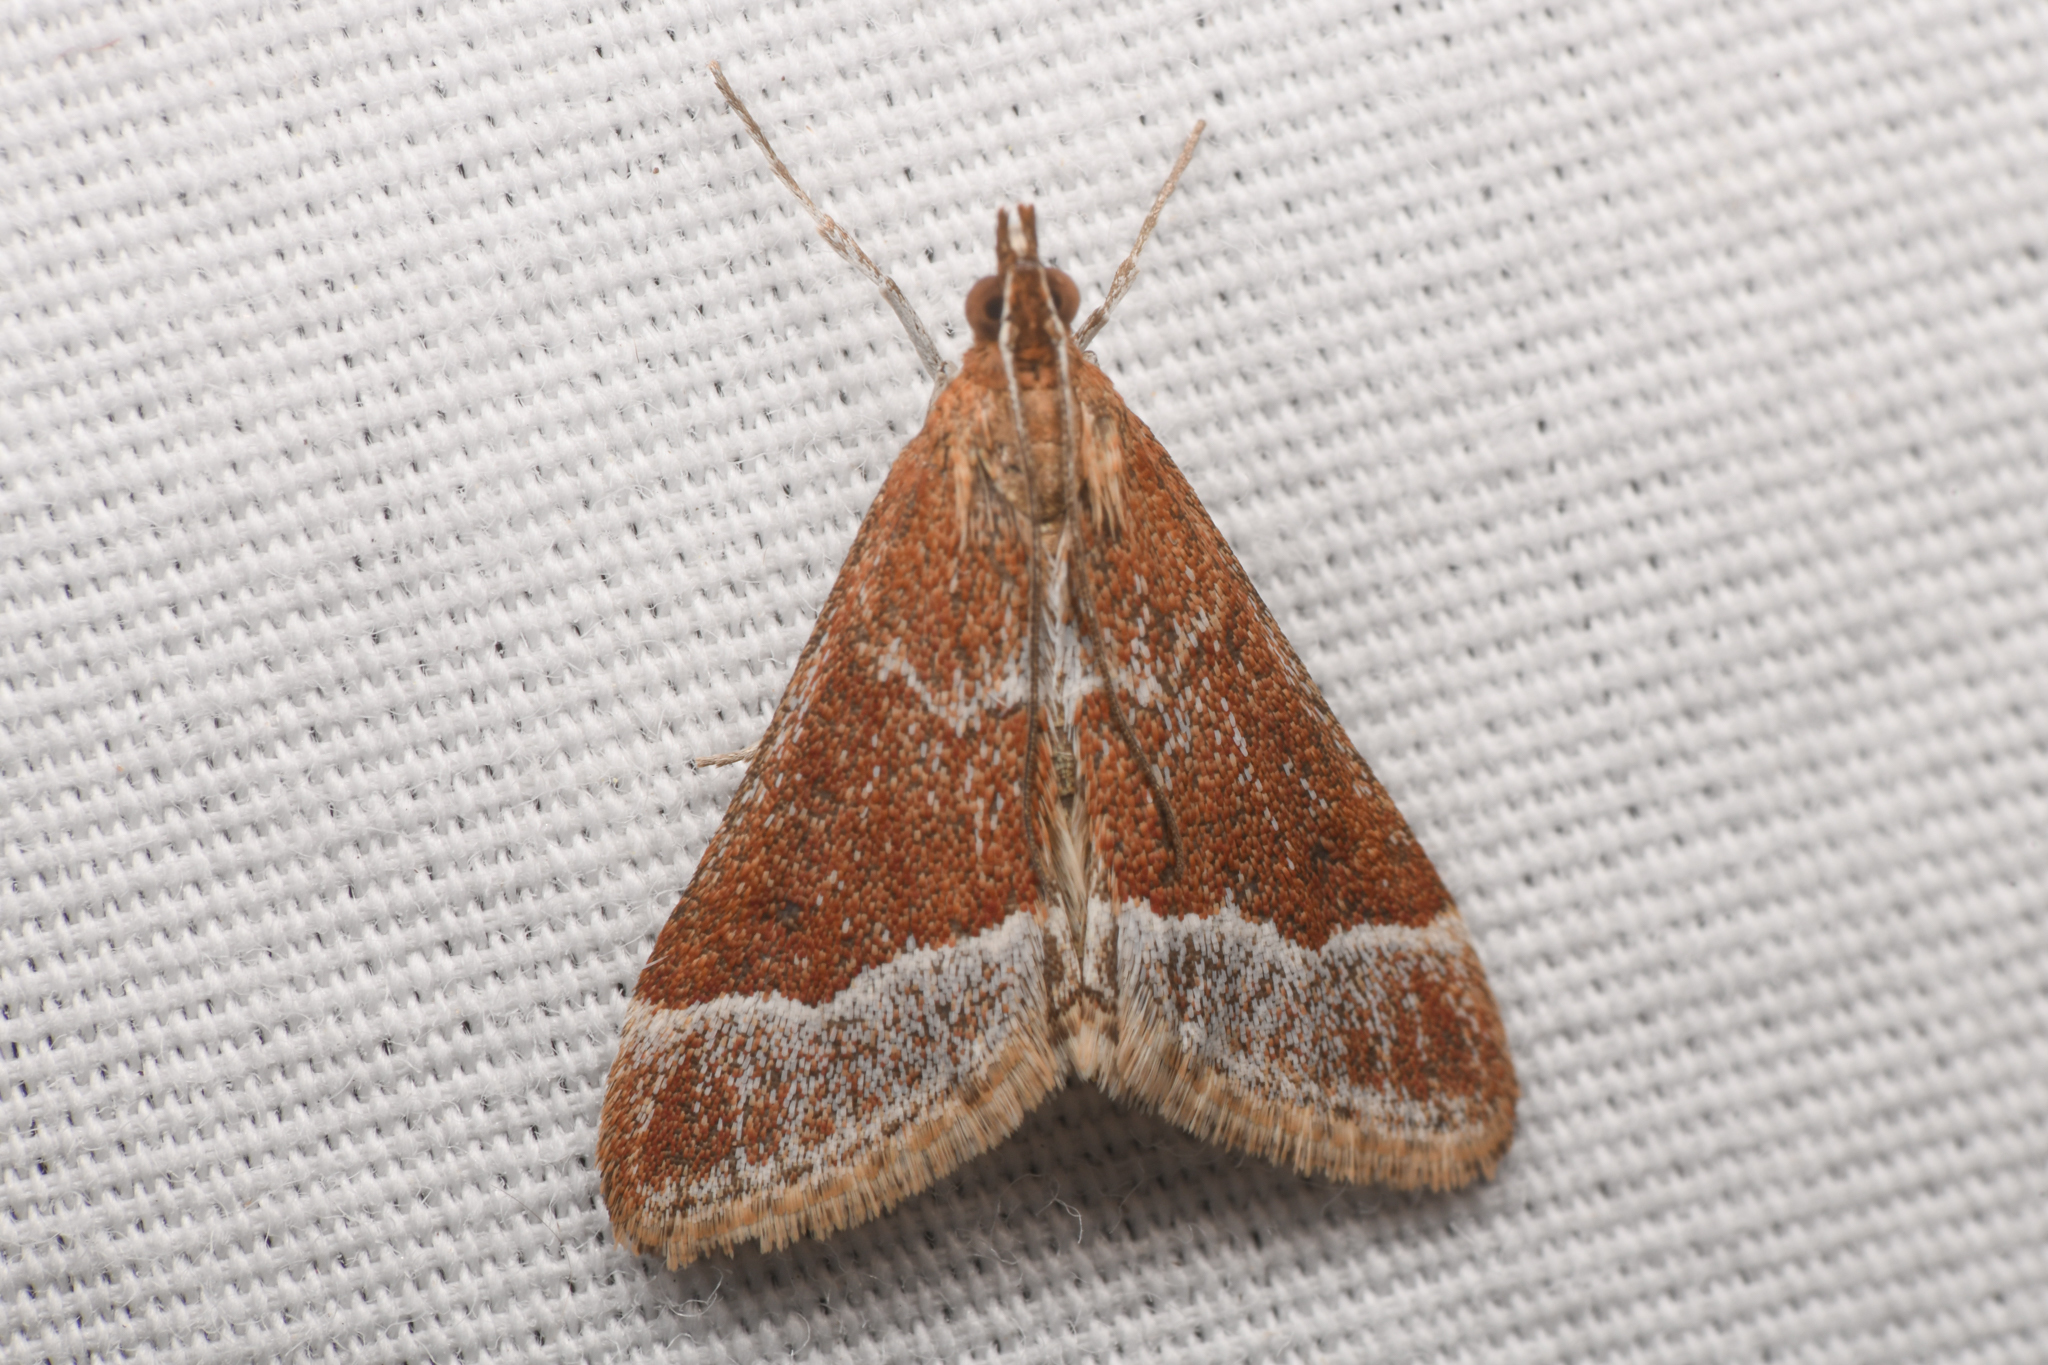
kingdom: Animalia
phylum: Arthropoda
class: Insecta
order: Lepidoptera
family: Crambidae
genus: Pyrausta
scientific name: Pyrausta lethalis
